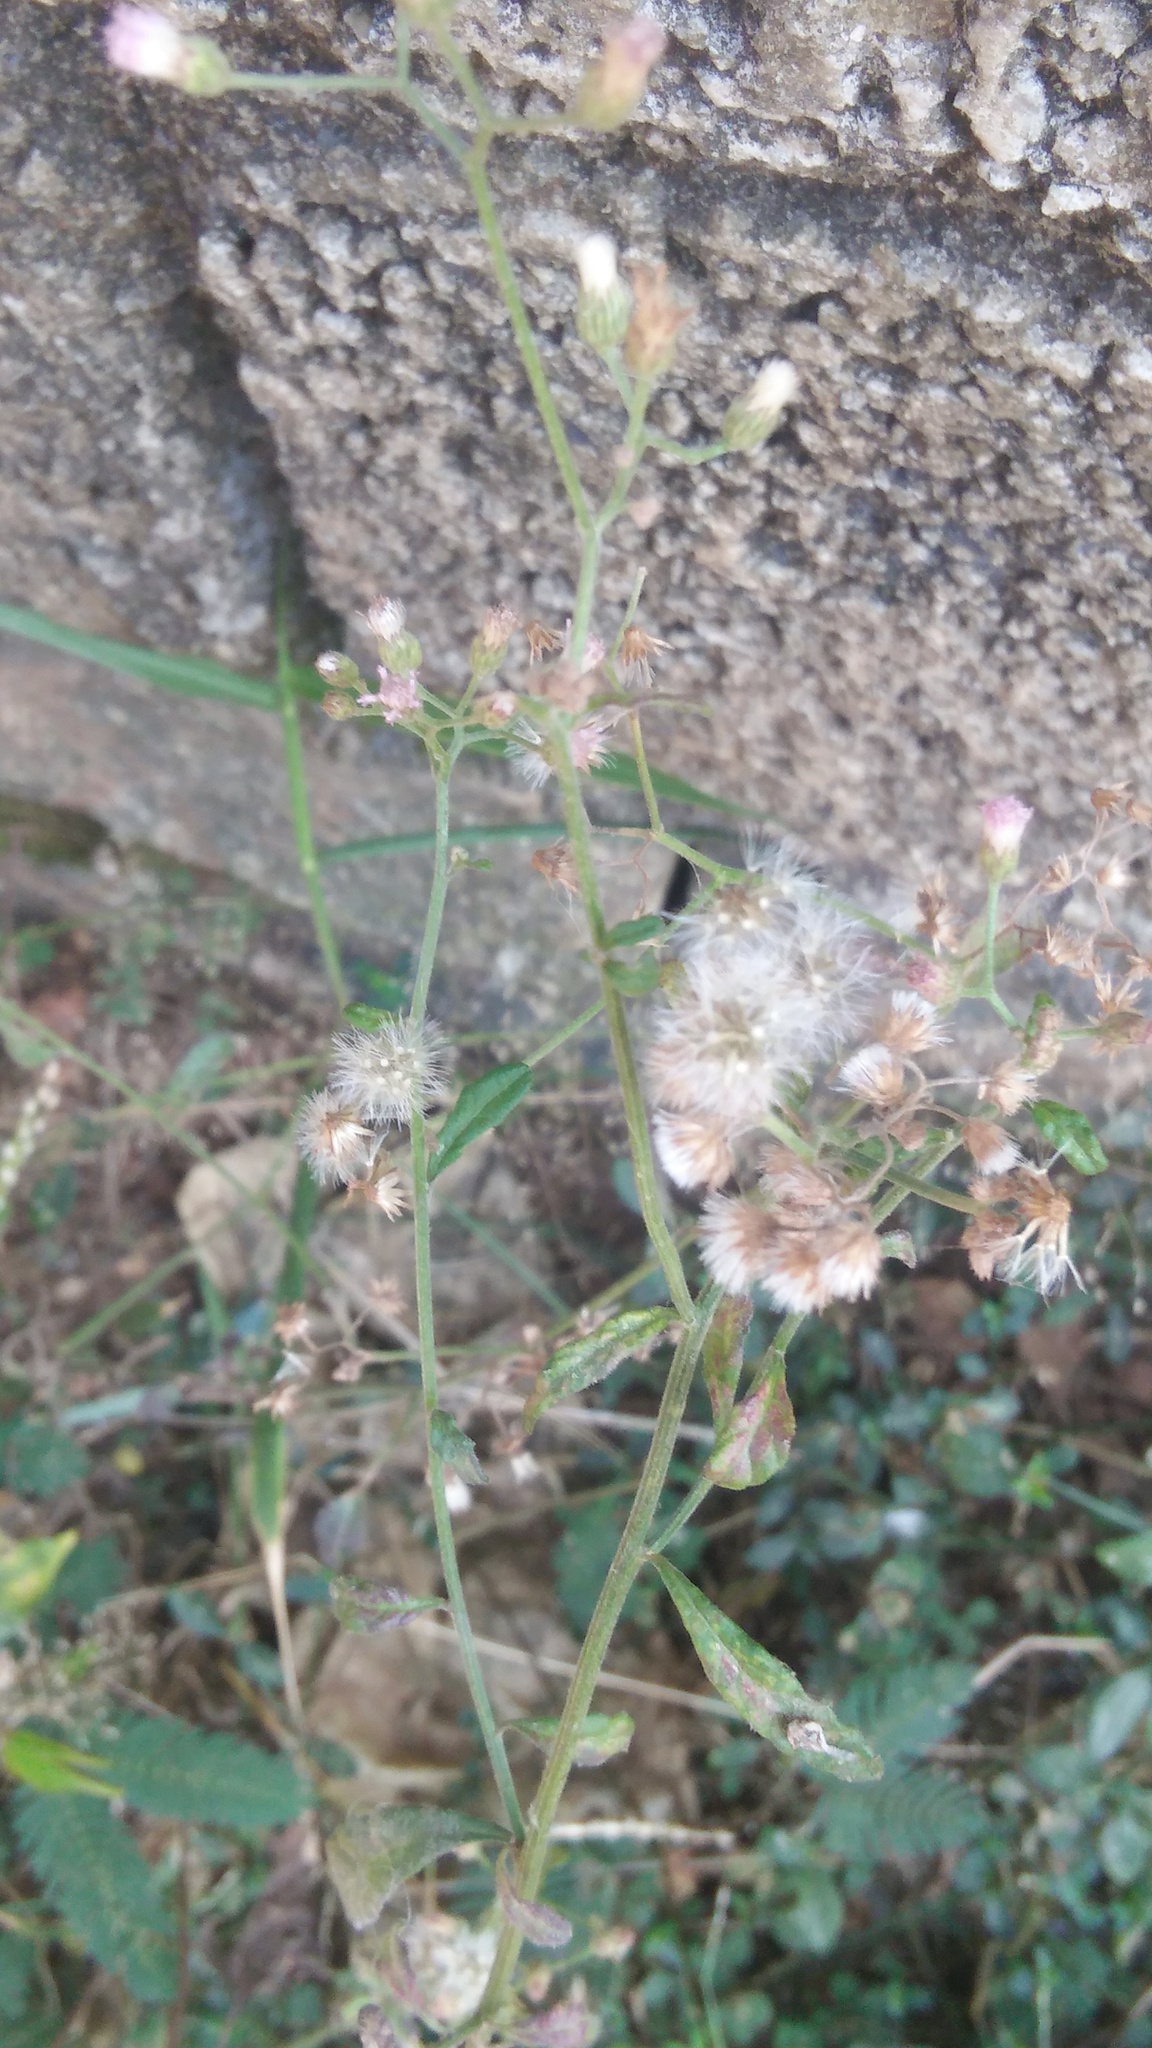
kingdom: Plantae
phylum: Tracheophyta
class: Magnoliopsida
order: Asterales
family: Asteraceae
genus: Cyanthillium
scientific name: Cyanthillium cinereum
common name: Little ironweed
